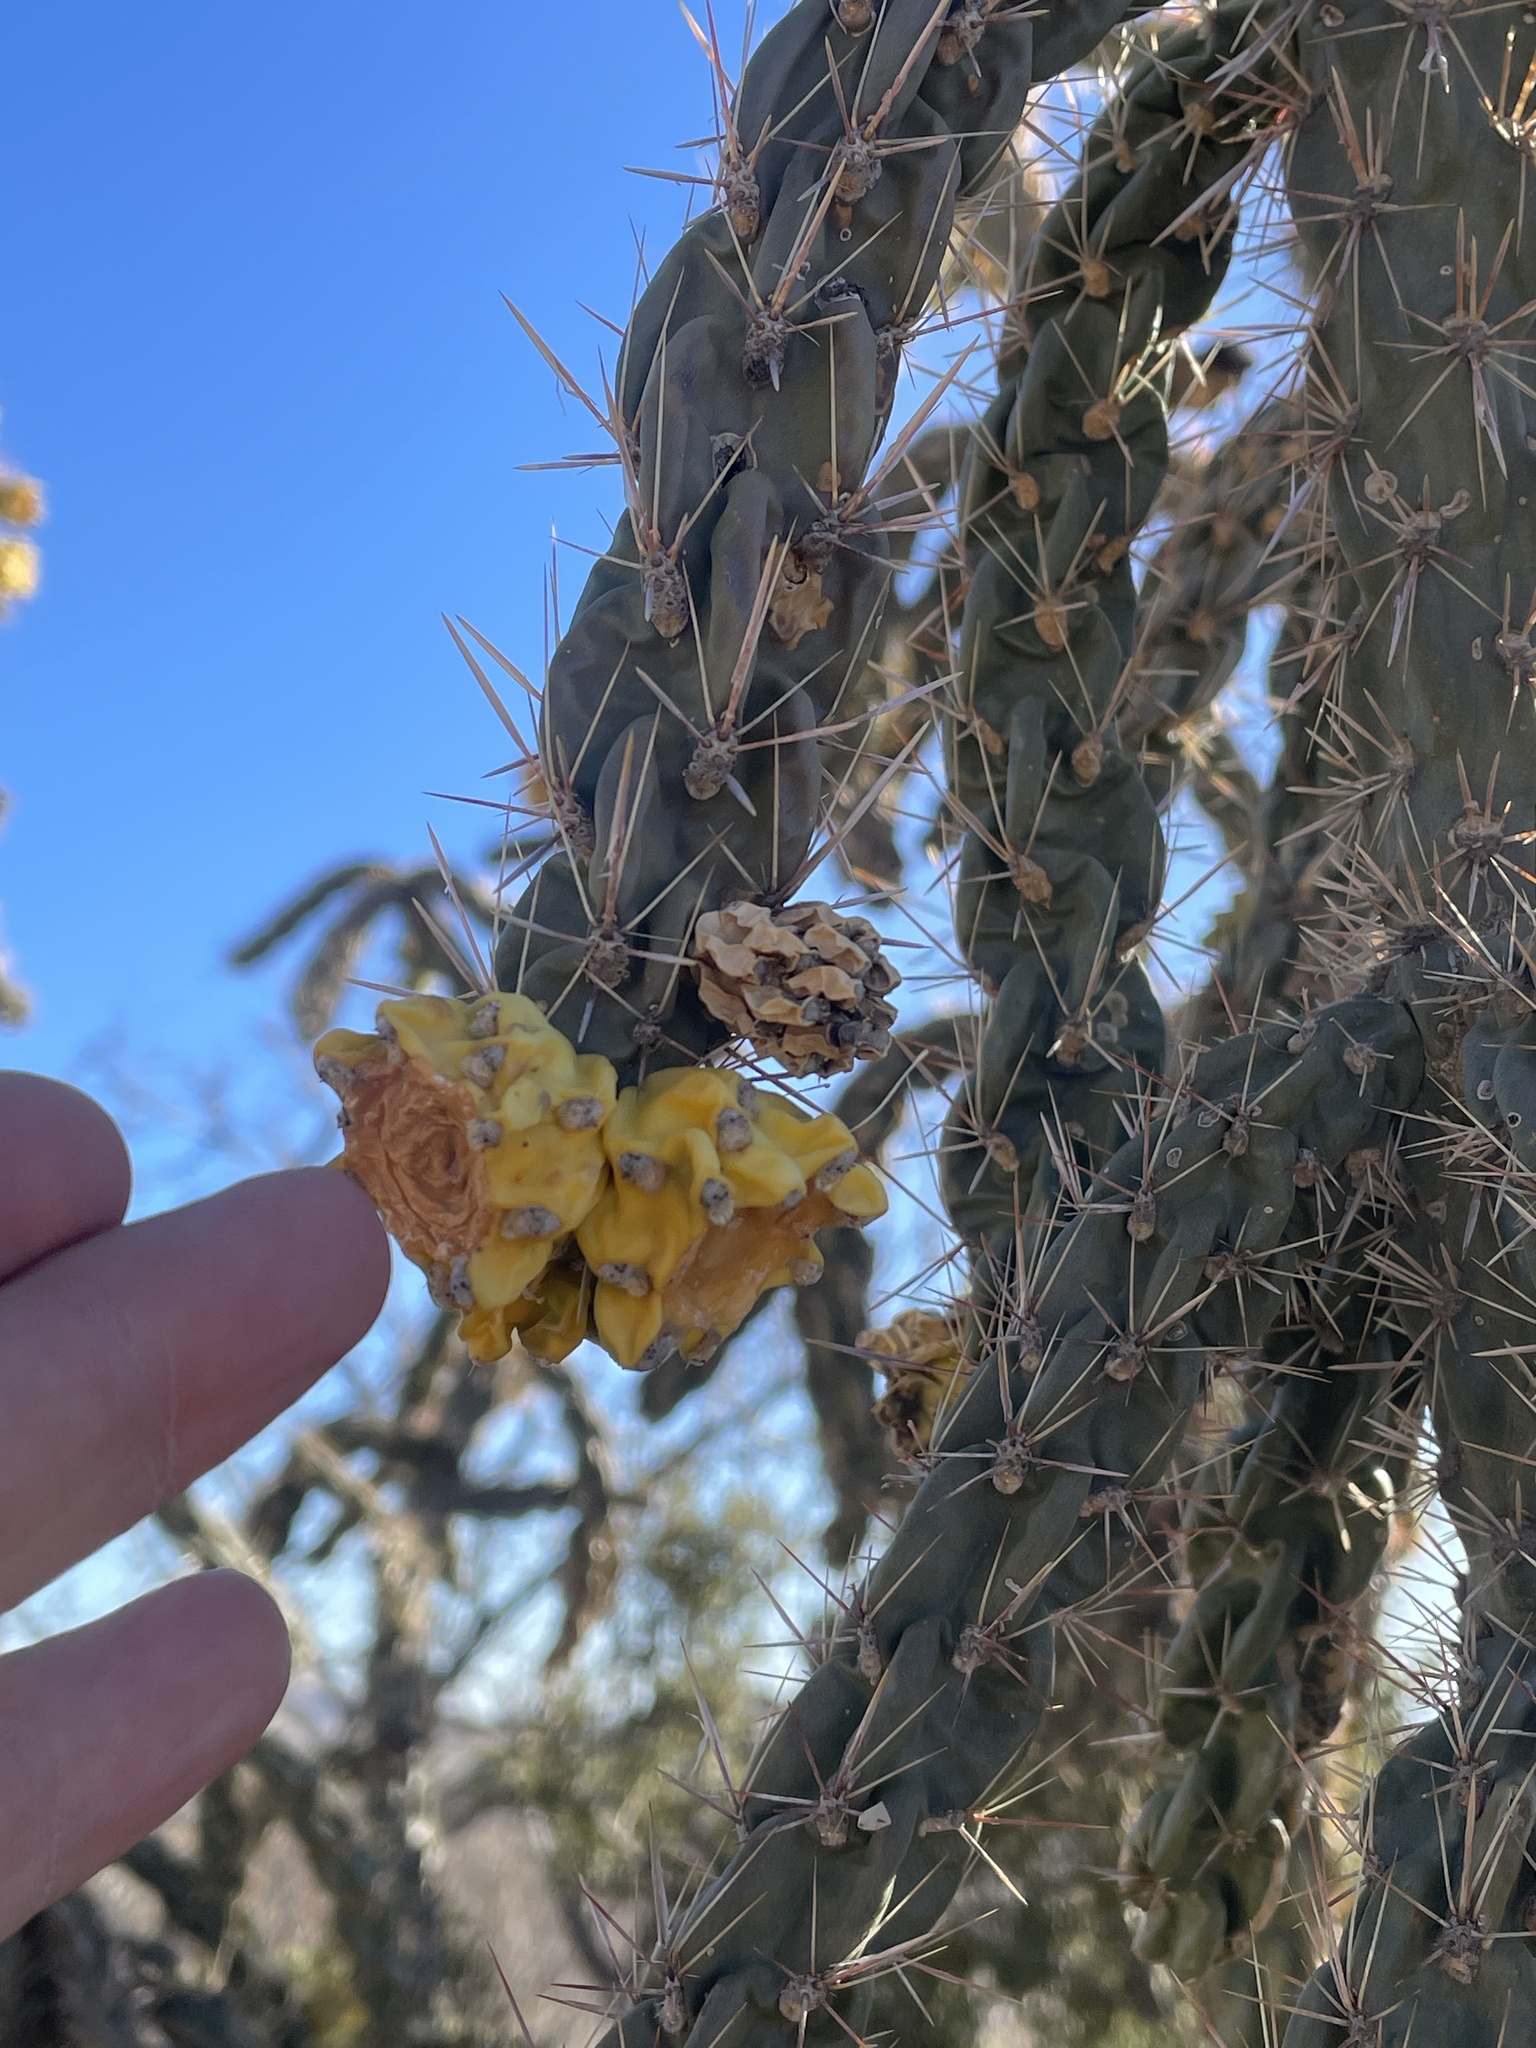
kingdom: Plantae
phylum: Tracheophyta
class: Magnoliopsida
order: Caryophyllales
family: Cactaceae
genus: Cylindropuntia
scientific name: Cylindropuntia imbricata
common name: Candelabrum cactus
